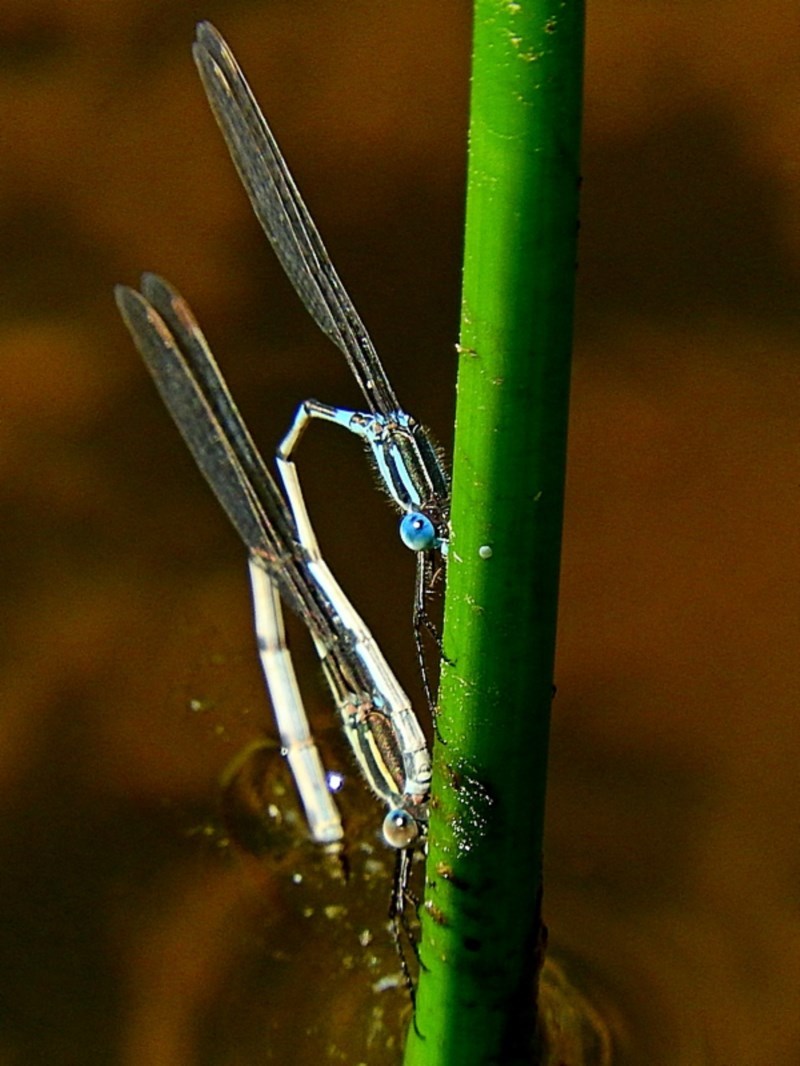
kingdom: Animalia
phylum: Arthropoda
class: Insecta
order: Odonata
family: Lestidae
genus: Austrolestes
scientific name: Austrolestes leda
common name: Wandering ringtail
